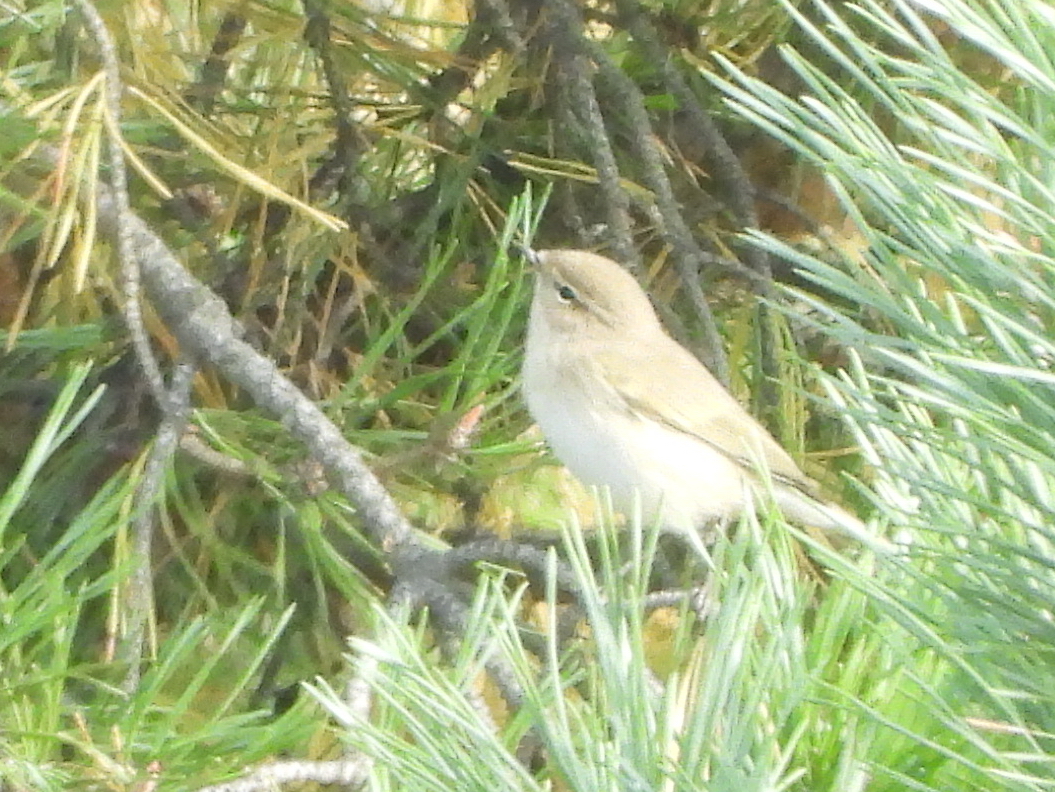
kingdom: Animalia
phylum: Chordata
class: Aves
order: Passeriformes
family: Phylloscopidae
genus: Phylloscopus
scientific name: Phylloscopus collybita
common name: Common chiffchaff
